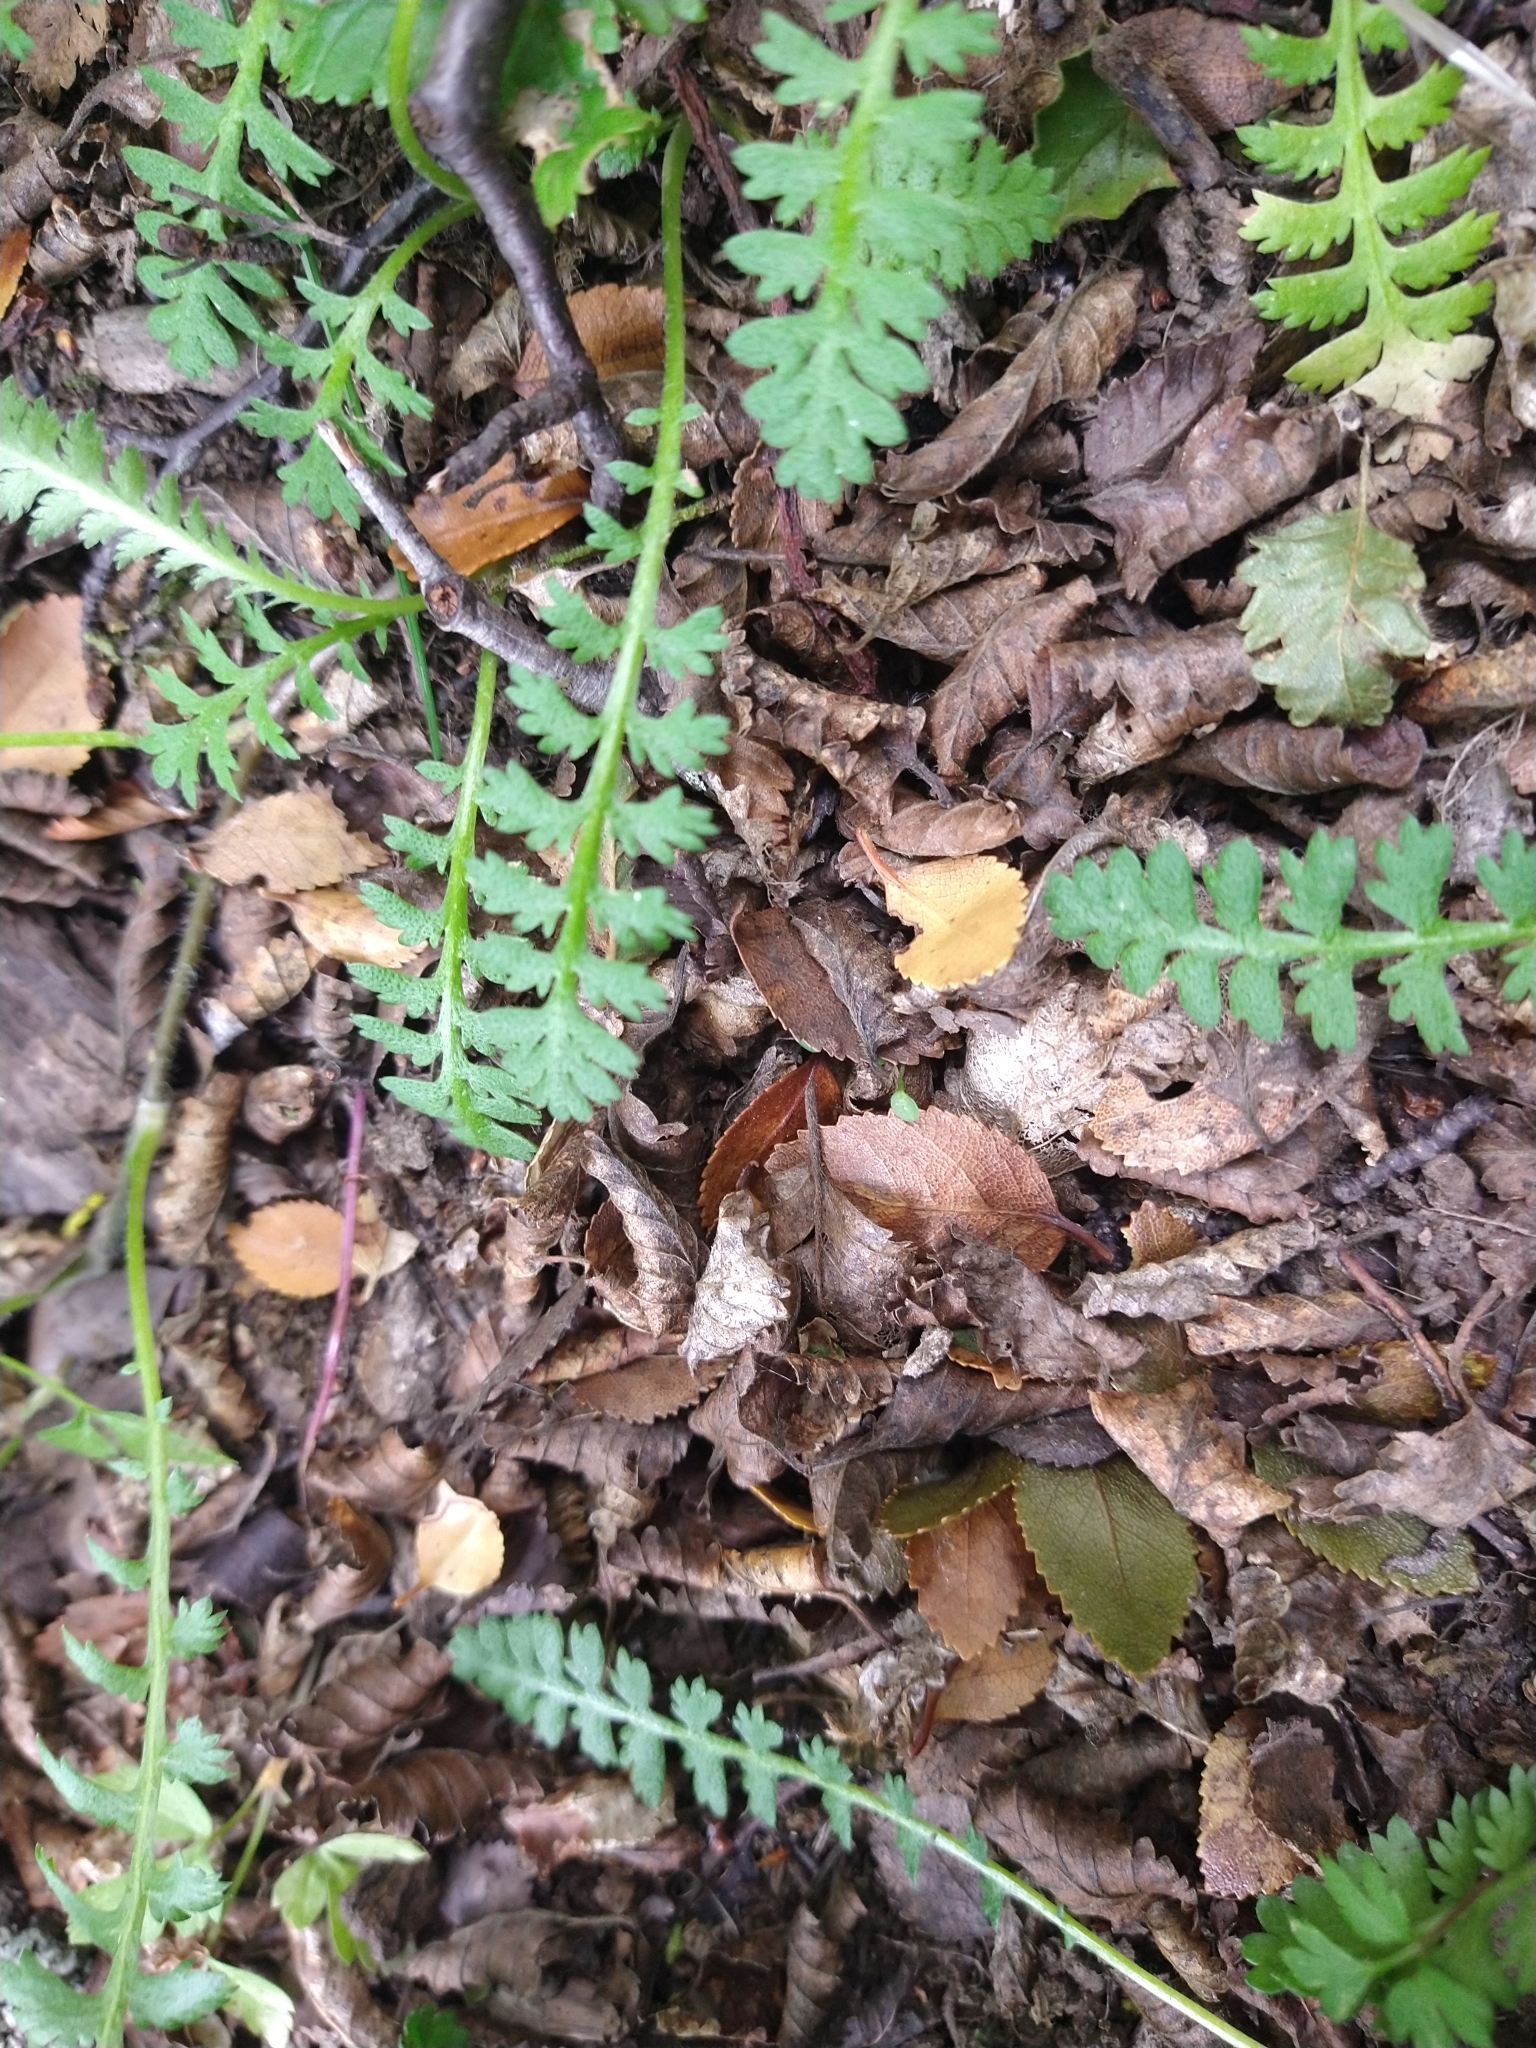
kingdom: Plantae
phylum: Tracheophyta
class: Magnoliopsida
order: Asterales
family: Asteraceae
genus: Leptinella
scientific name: Leptinella scariosa
